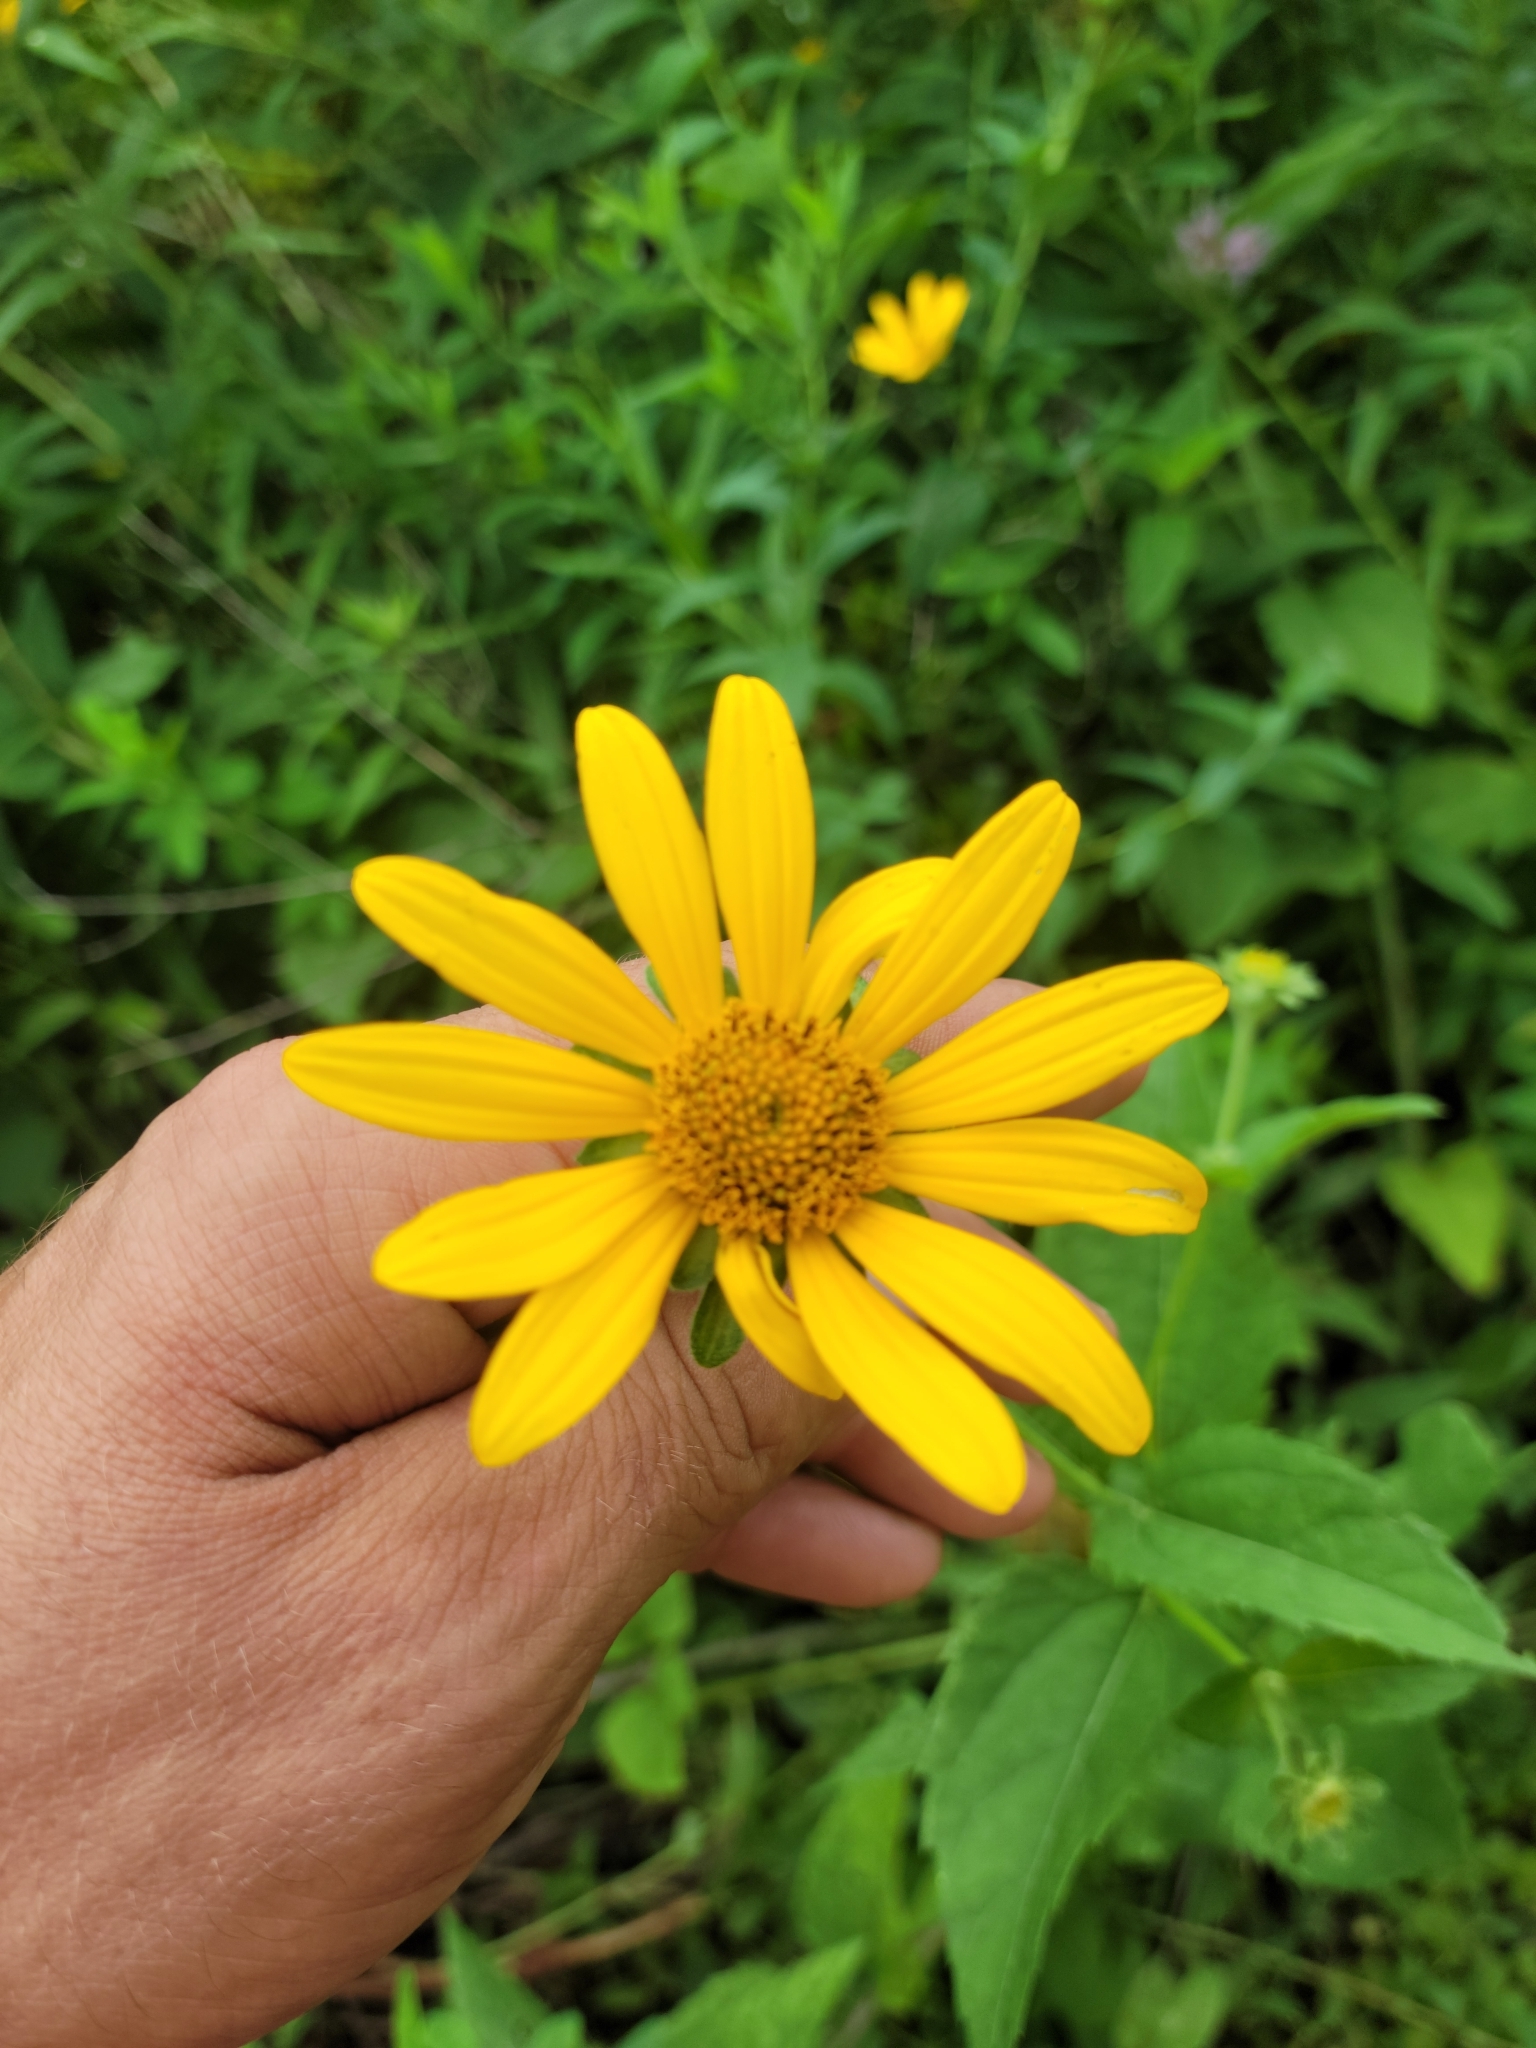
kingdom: Plantae
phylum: Tracheophyta
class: Magnoliopsida
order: Asterales
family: Asteraceae
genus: Heliopsis
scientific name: Heliopsis helianthoides
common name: False sunflower
